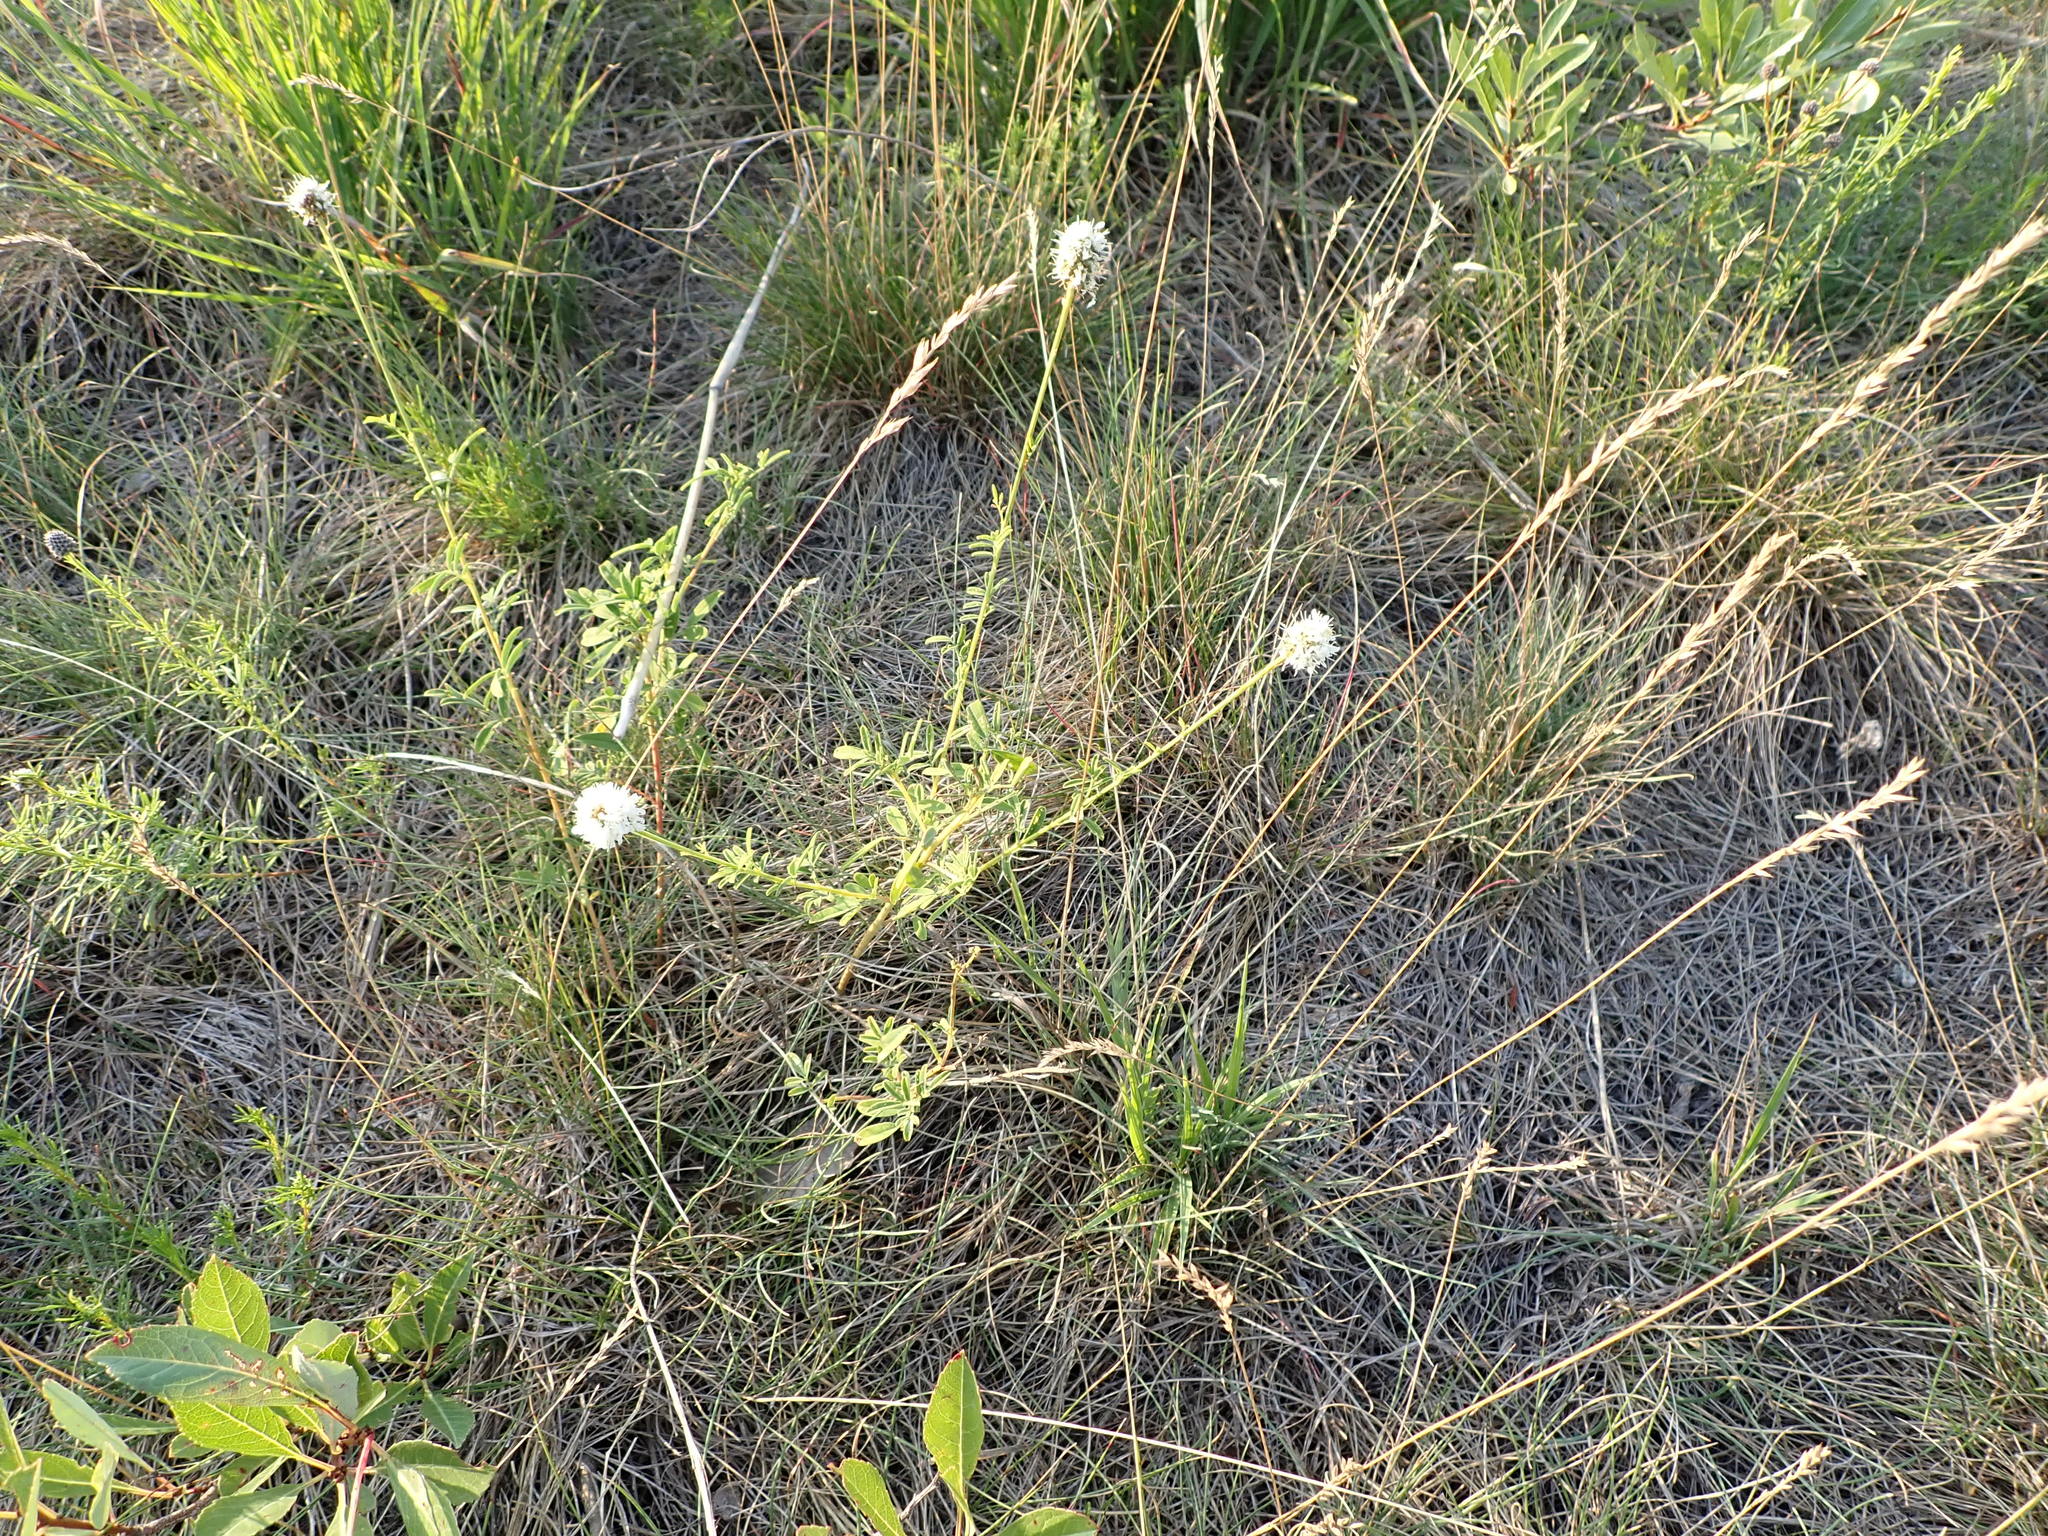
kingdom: Plantae
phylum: Tracheophyta
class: Magnoliopsida
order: Fabales
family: Fabaceae
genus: Dalea
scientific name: Dalea candida
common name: White prairie-clover
